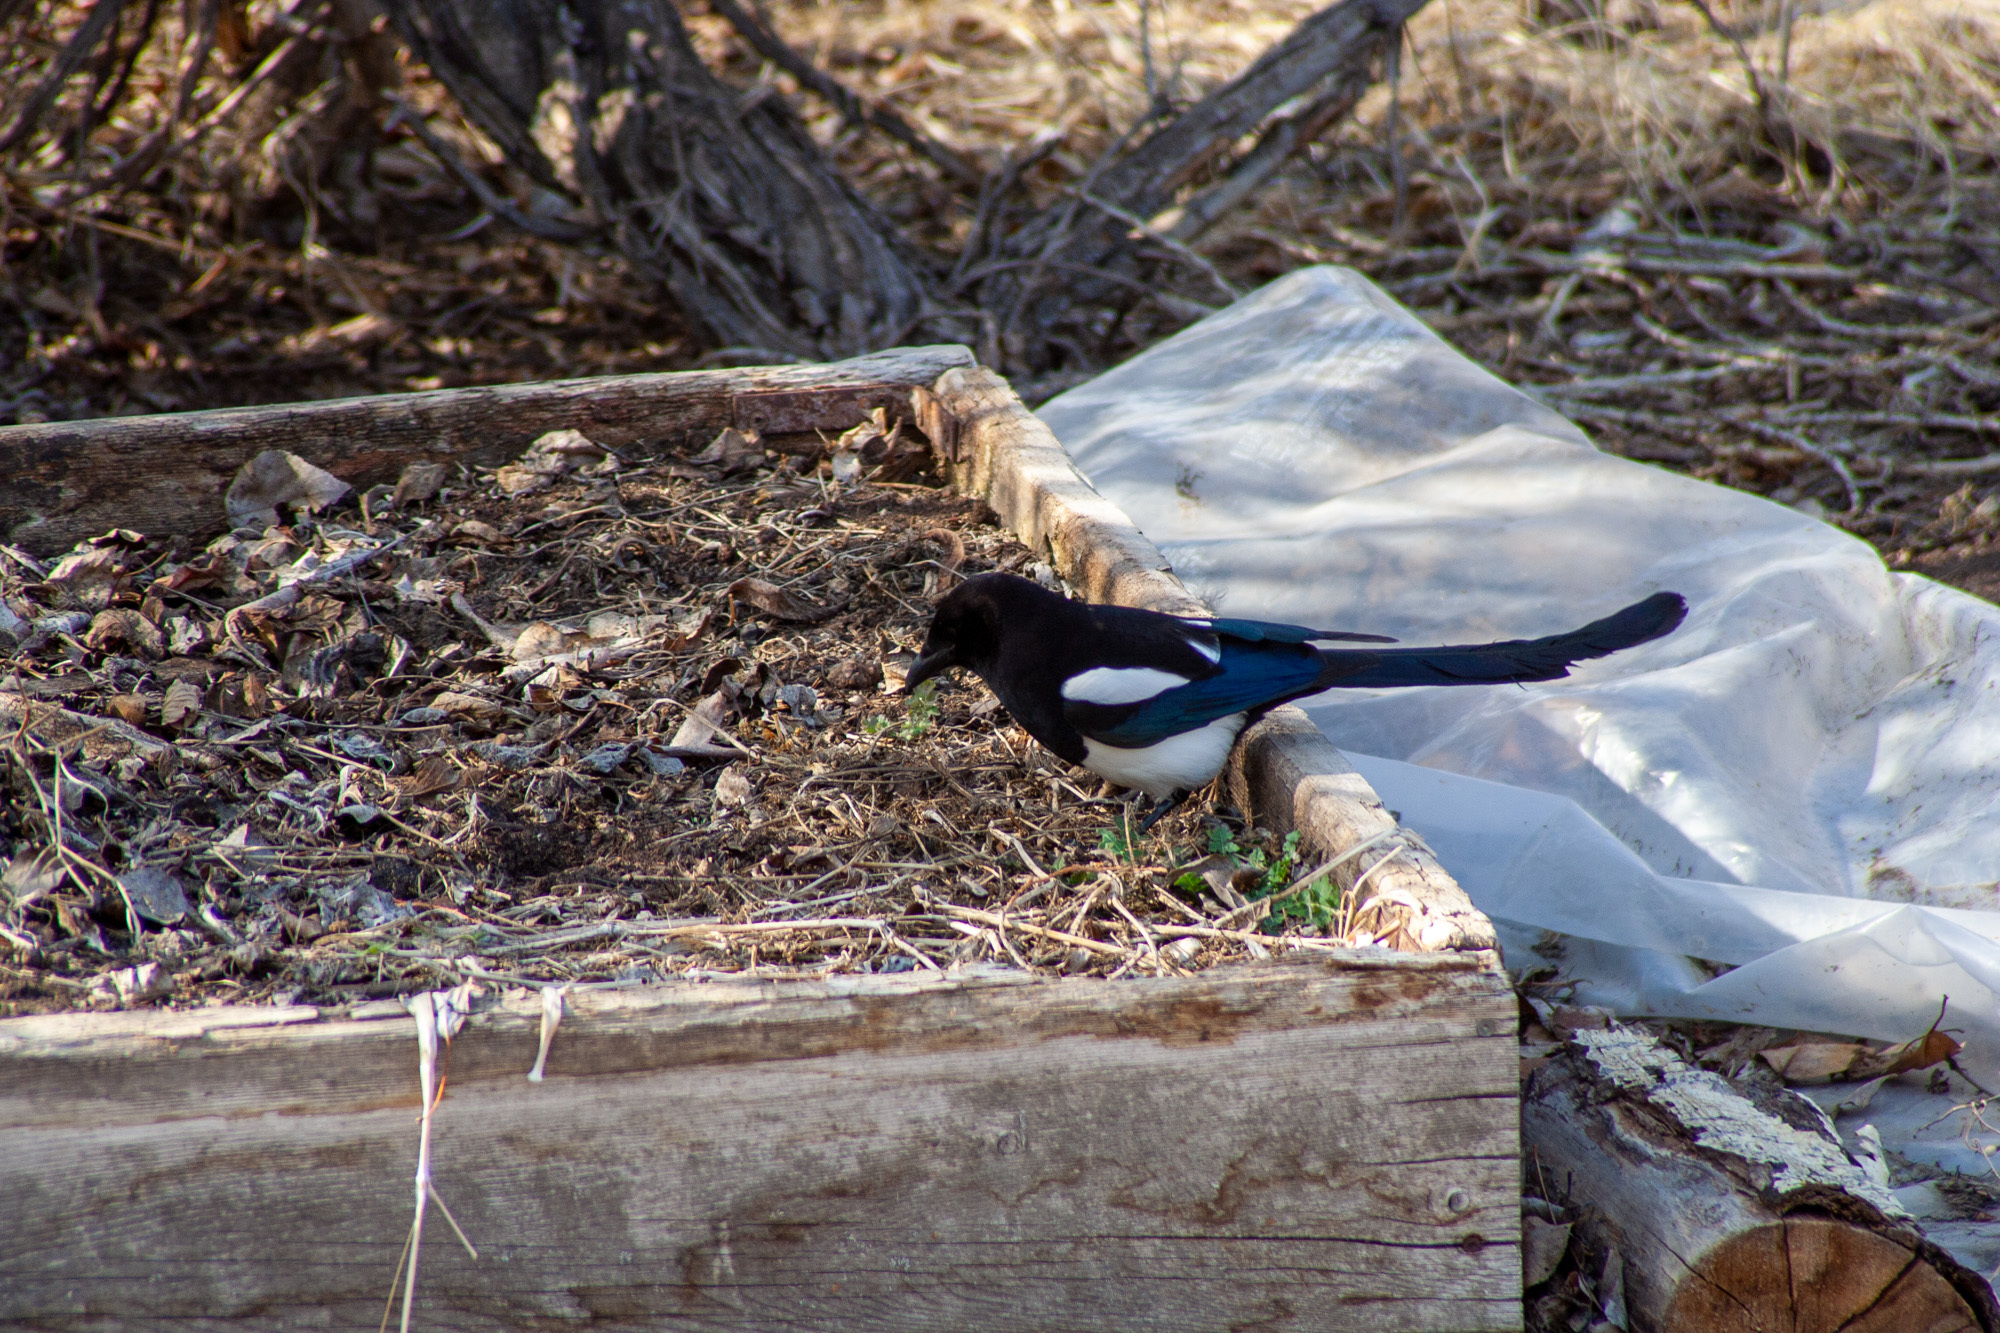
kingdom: Animalia
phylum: Chordata
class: Aves
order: Passeriformes
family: Corvidae
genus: Pica
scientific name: Pica hudsonia
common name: Black-billed magpie
